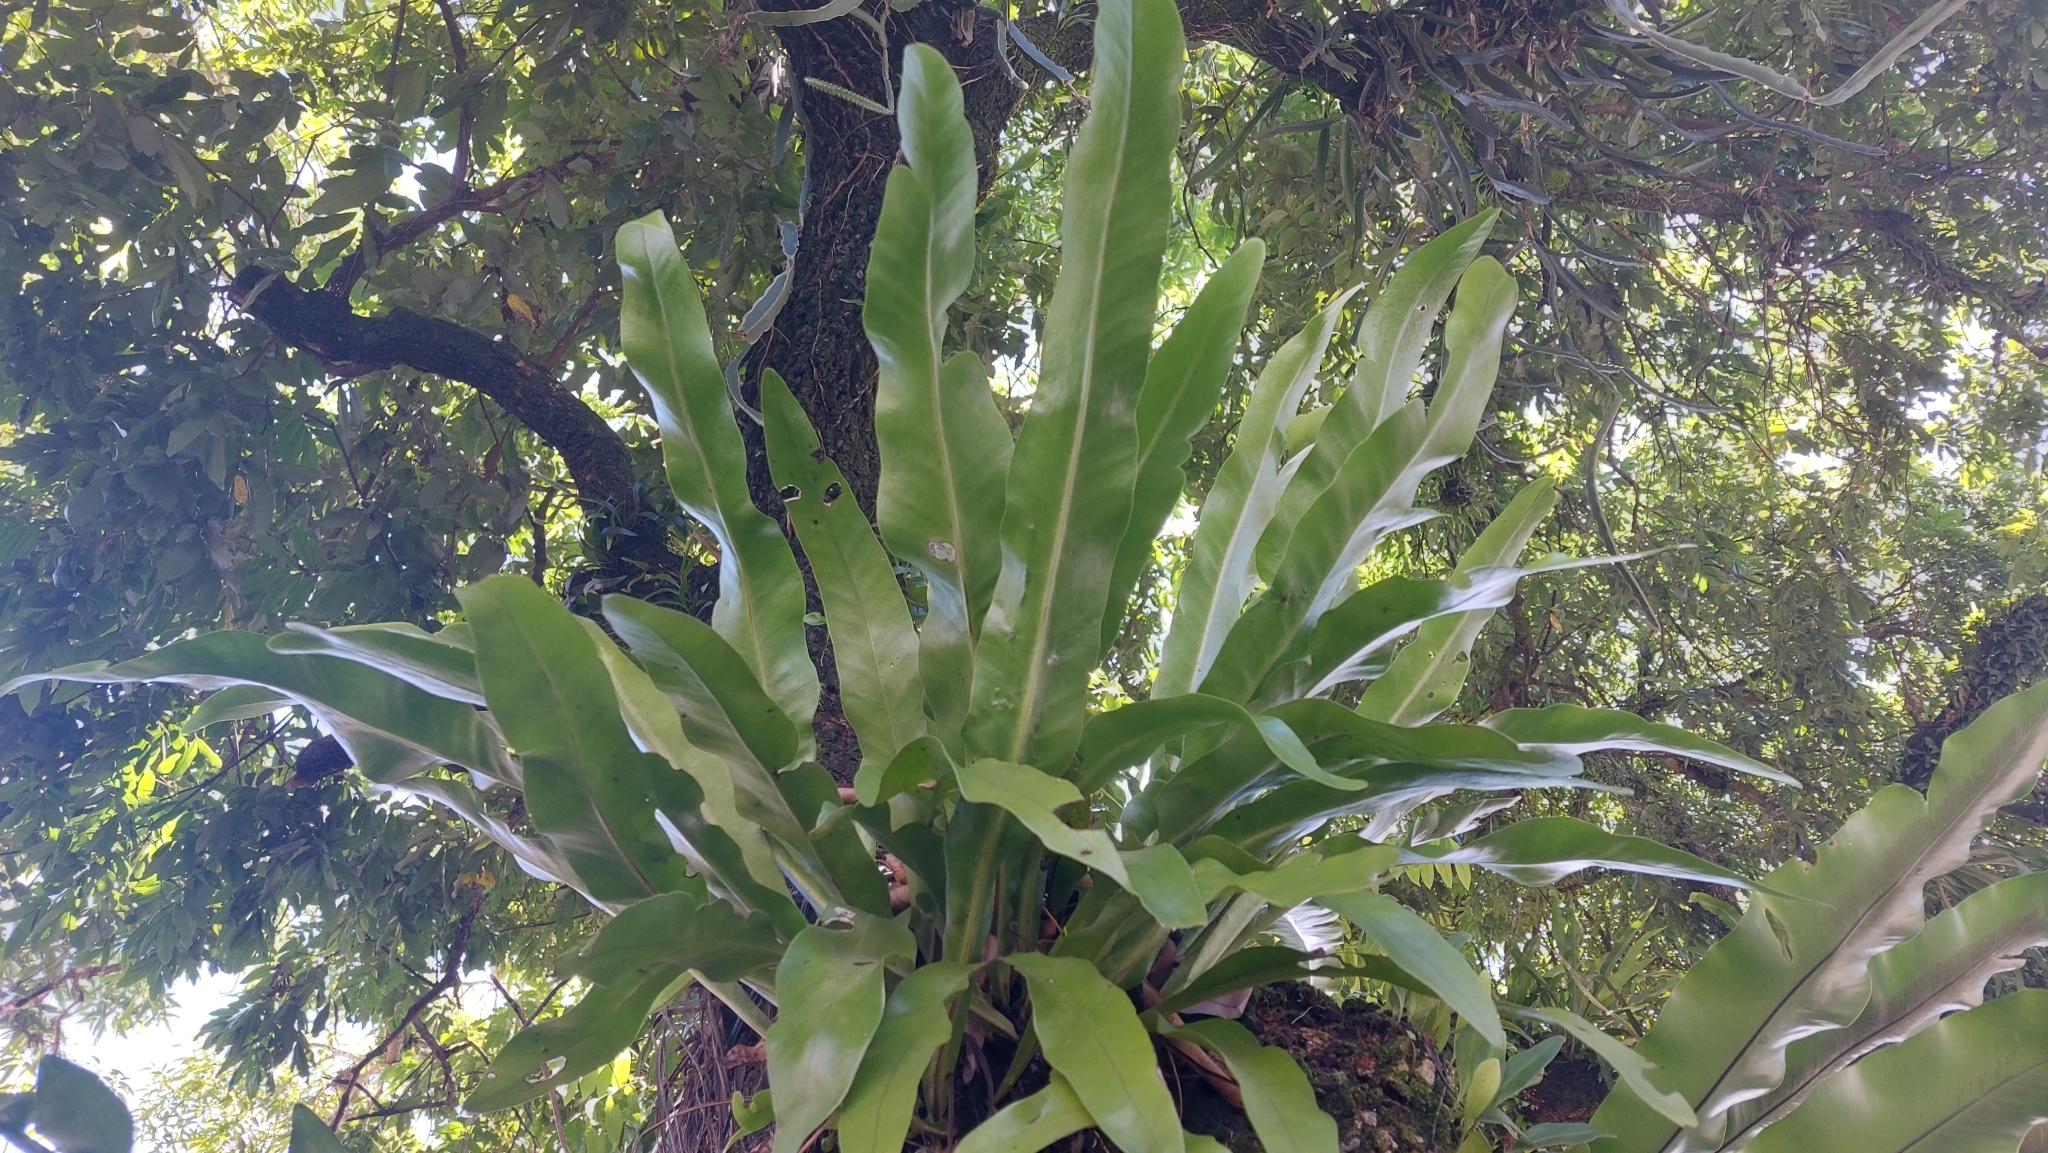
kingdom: Plantae
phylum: Tracheophyta
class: Polypodiopsida
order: Polypodiales
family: Polypodiaceae
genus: Microsorum
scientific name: Microsorum punctatum
